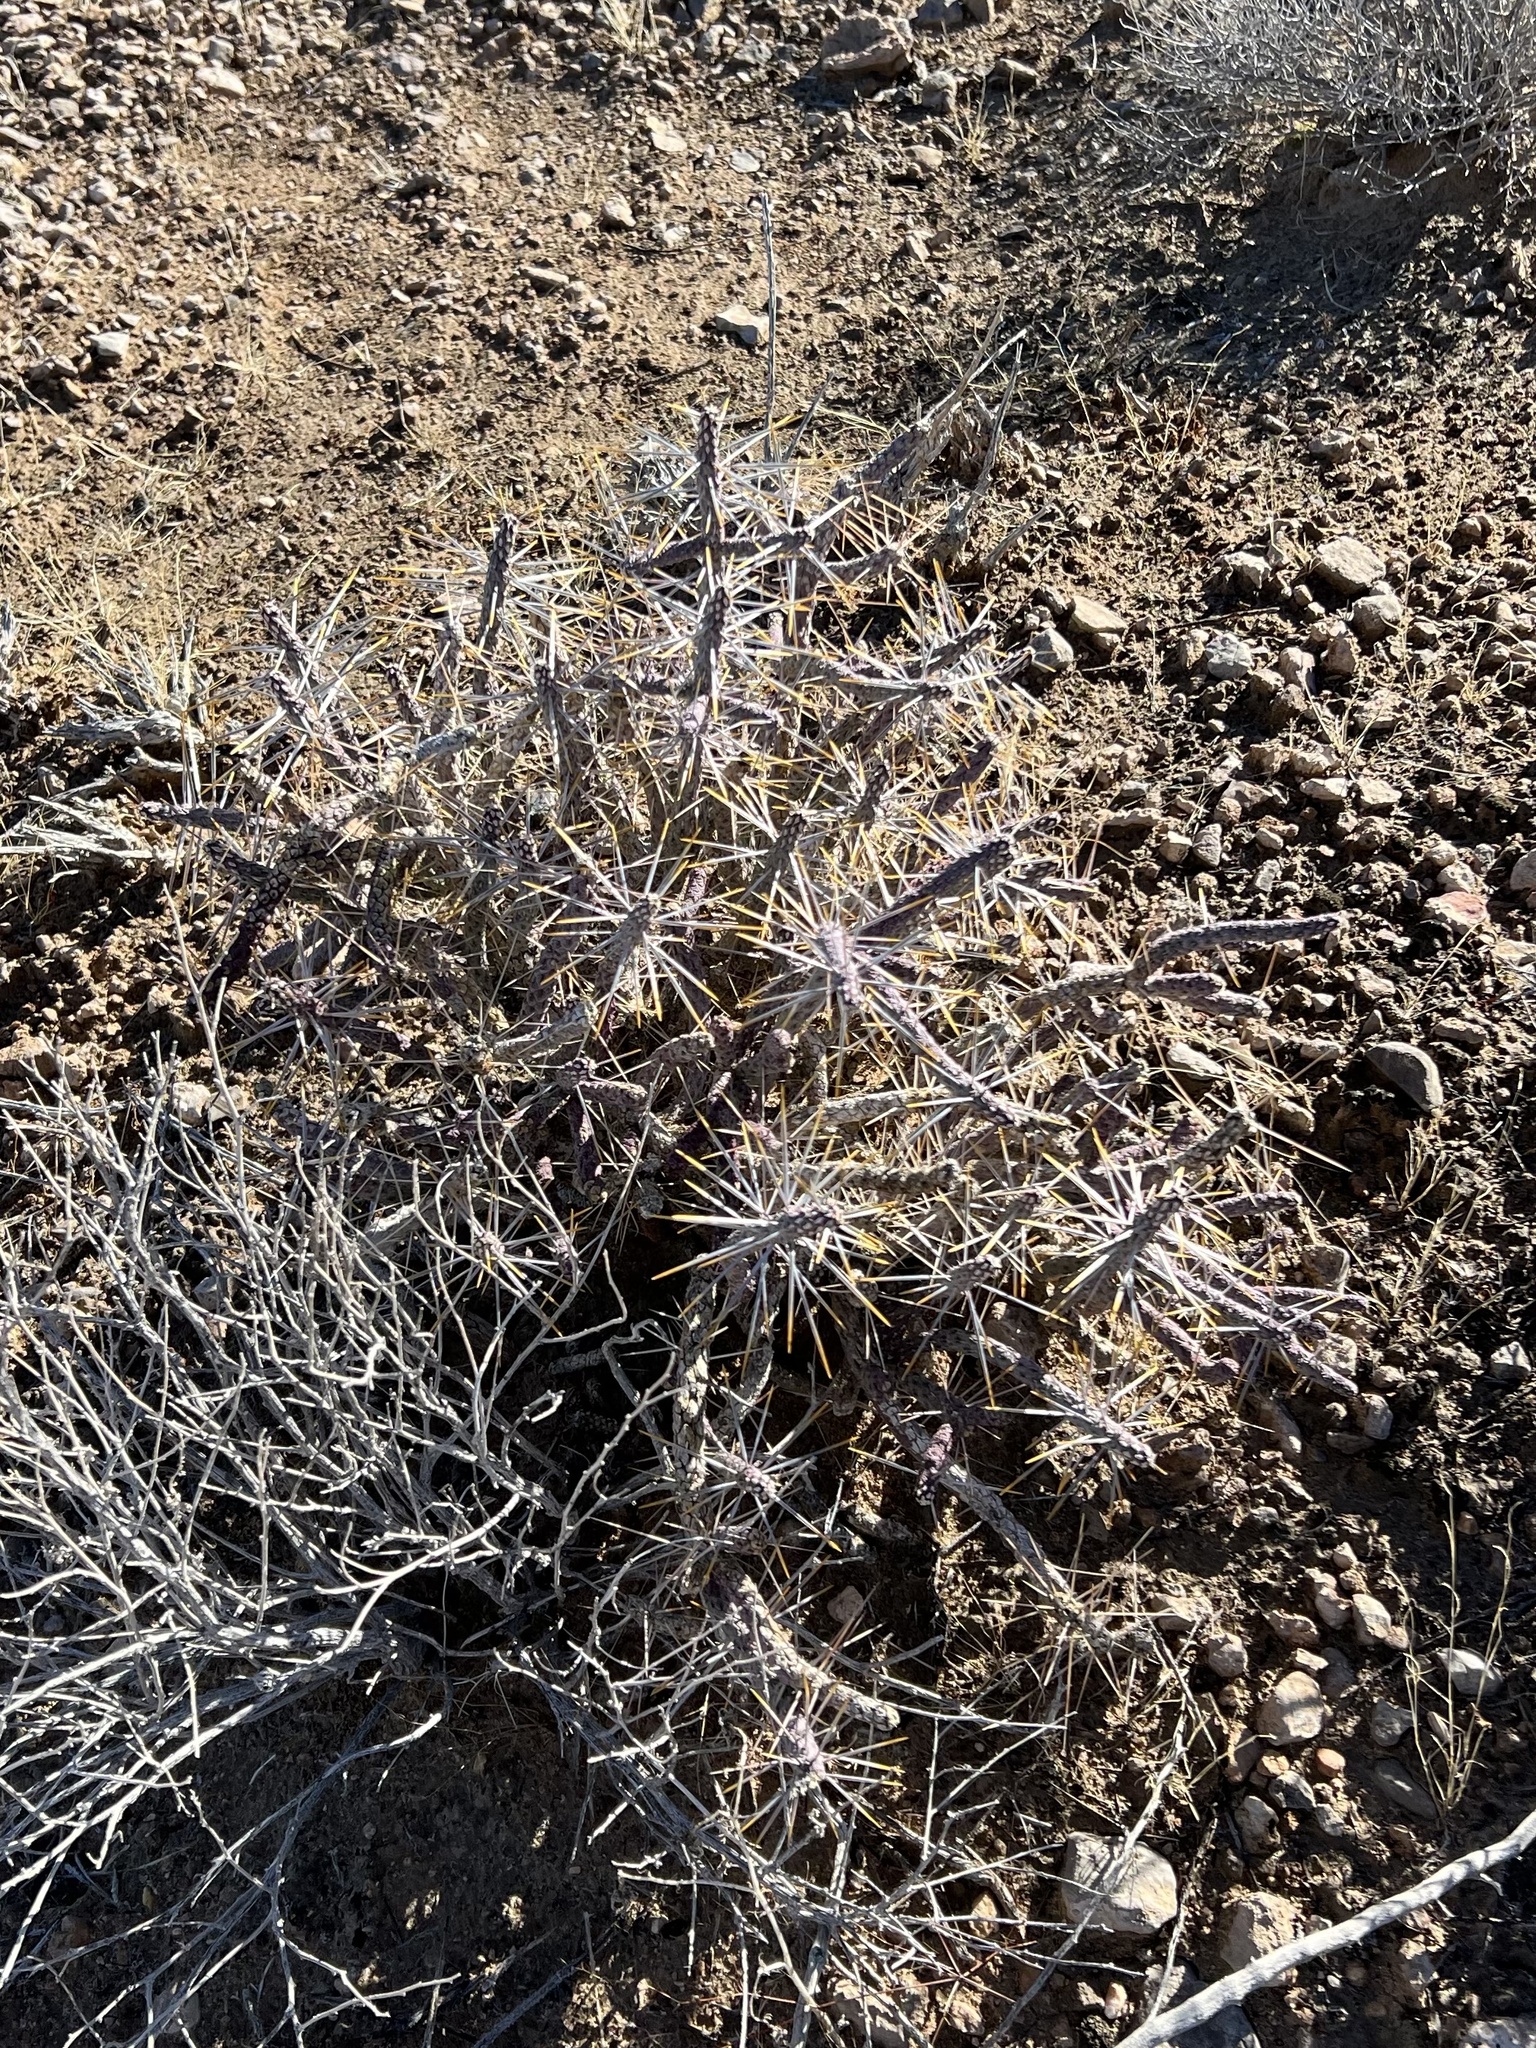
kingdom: Plantae
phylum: Tracheophyta
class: Magnoliopsida
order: Caryophyllales
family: Cactaceae
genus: Cylindropuntia
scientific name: Cylindropuntia ramosissima
